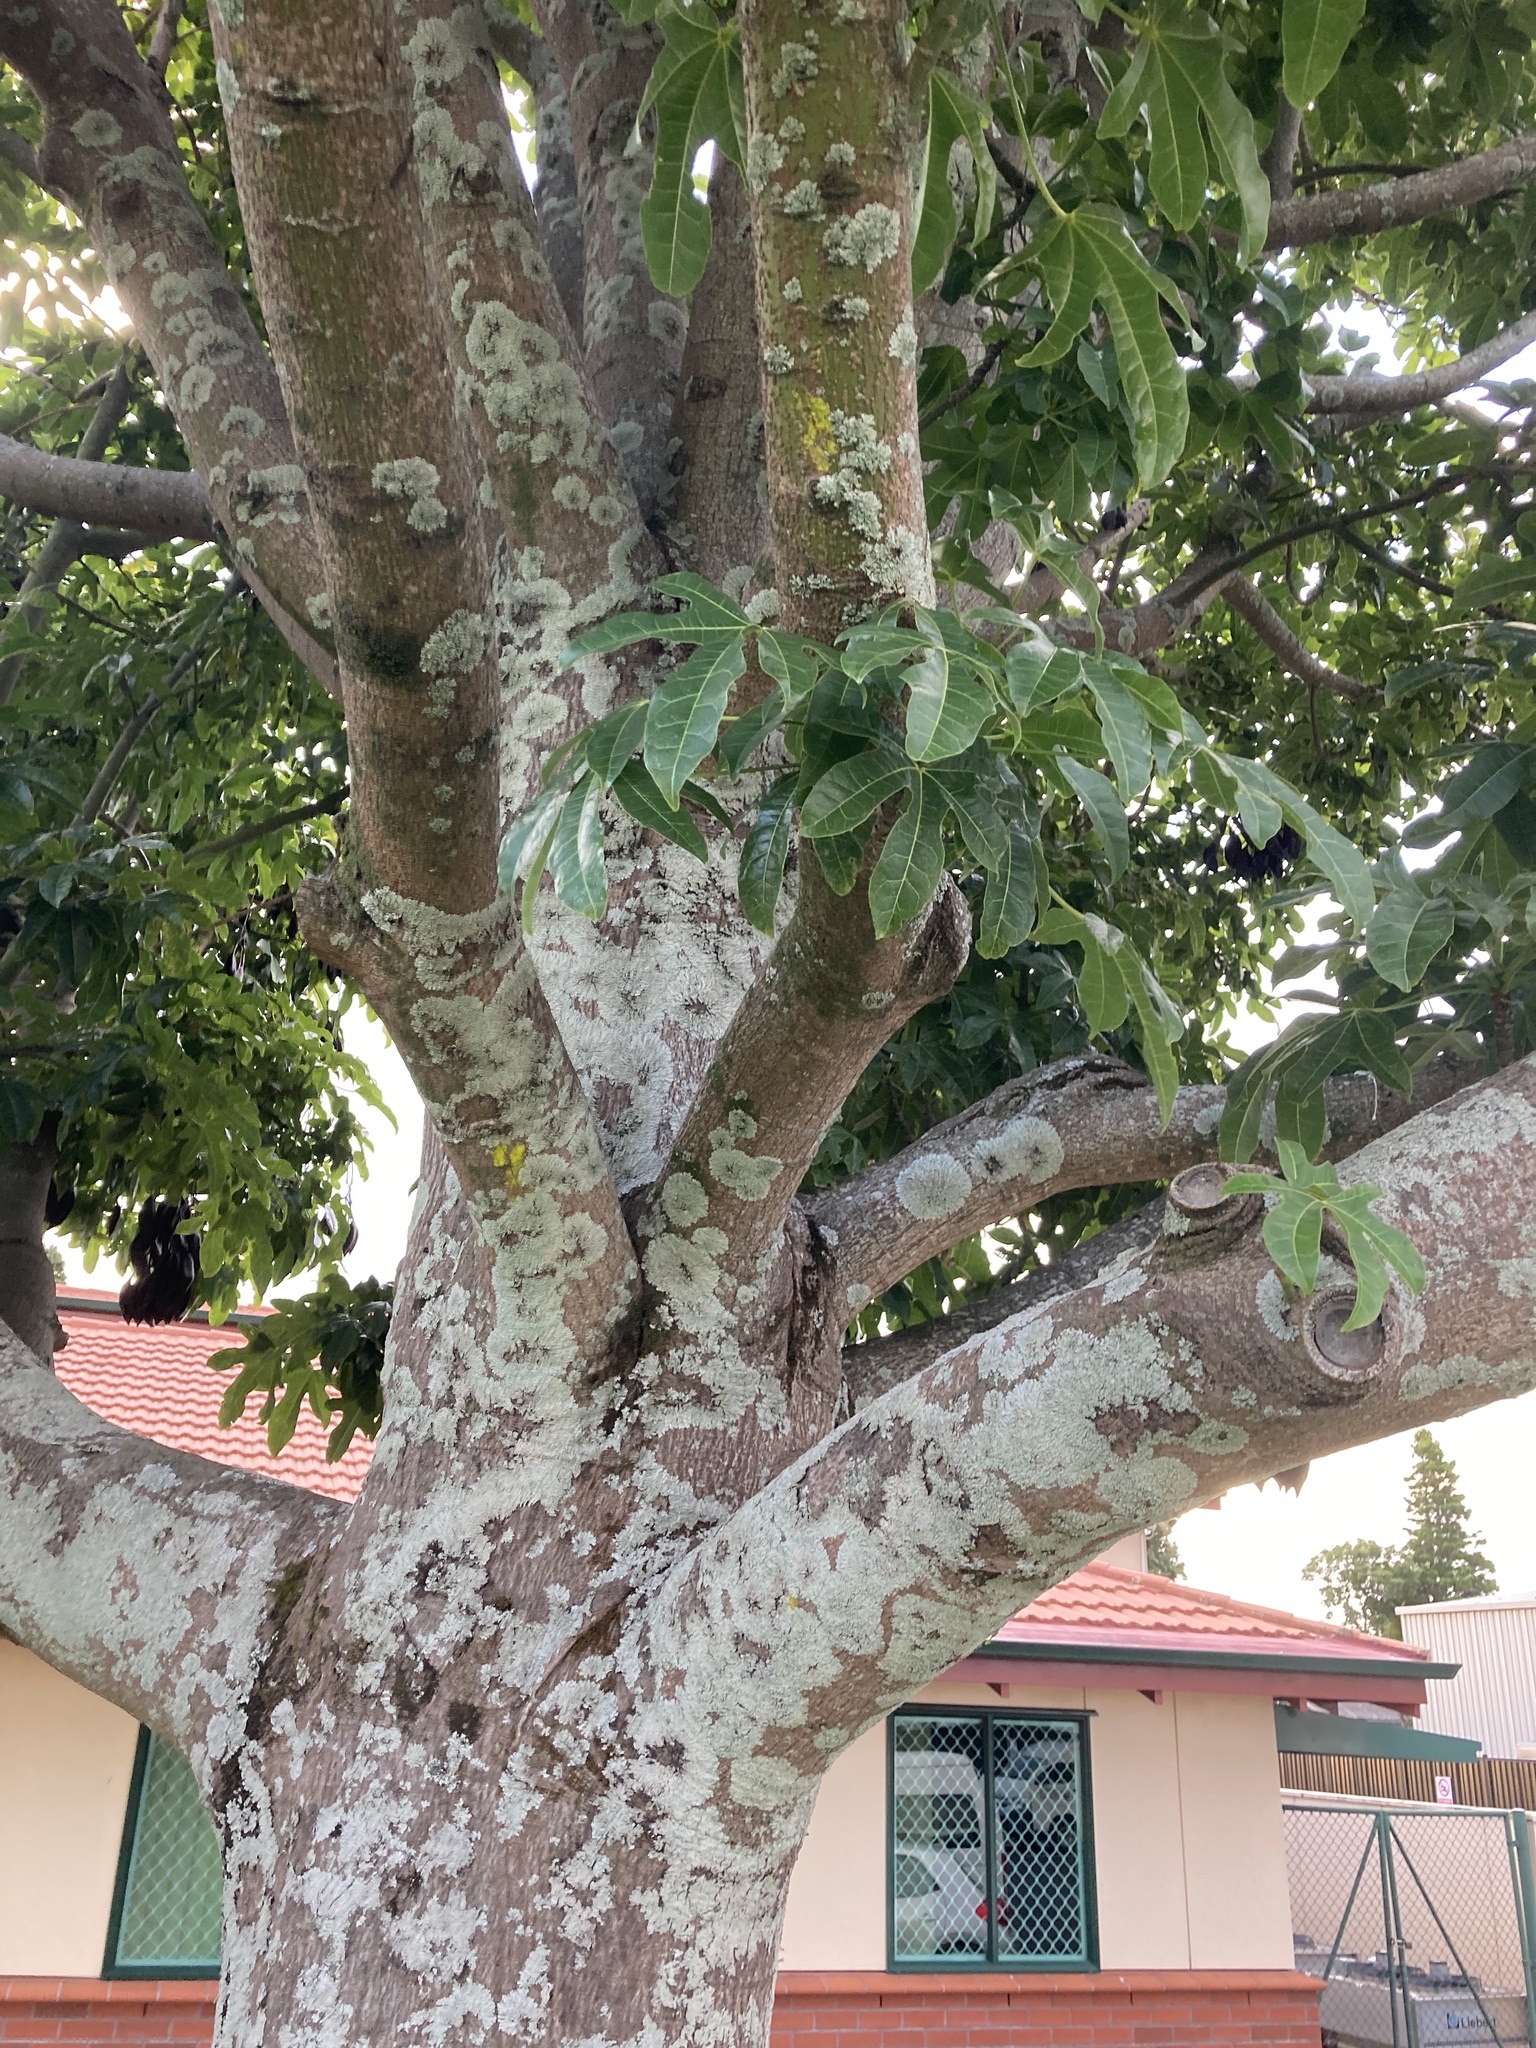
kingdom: Plantae
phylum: Tracheophyta
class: Magnoliopsida
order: Malvales
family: Malvaceae
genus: Brachychiton
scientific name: Brachychiton acerifolius
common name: Illawarra flame tree
